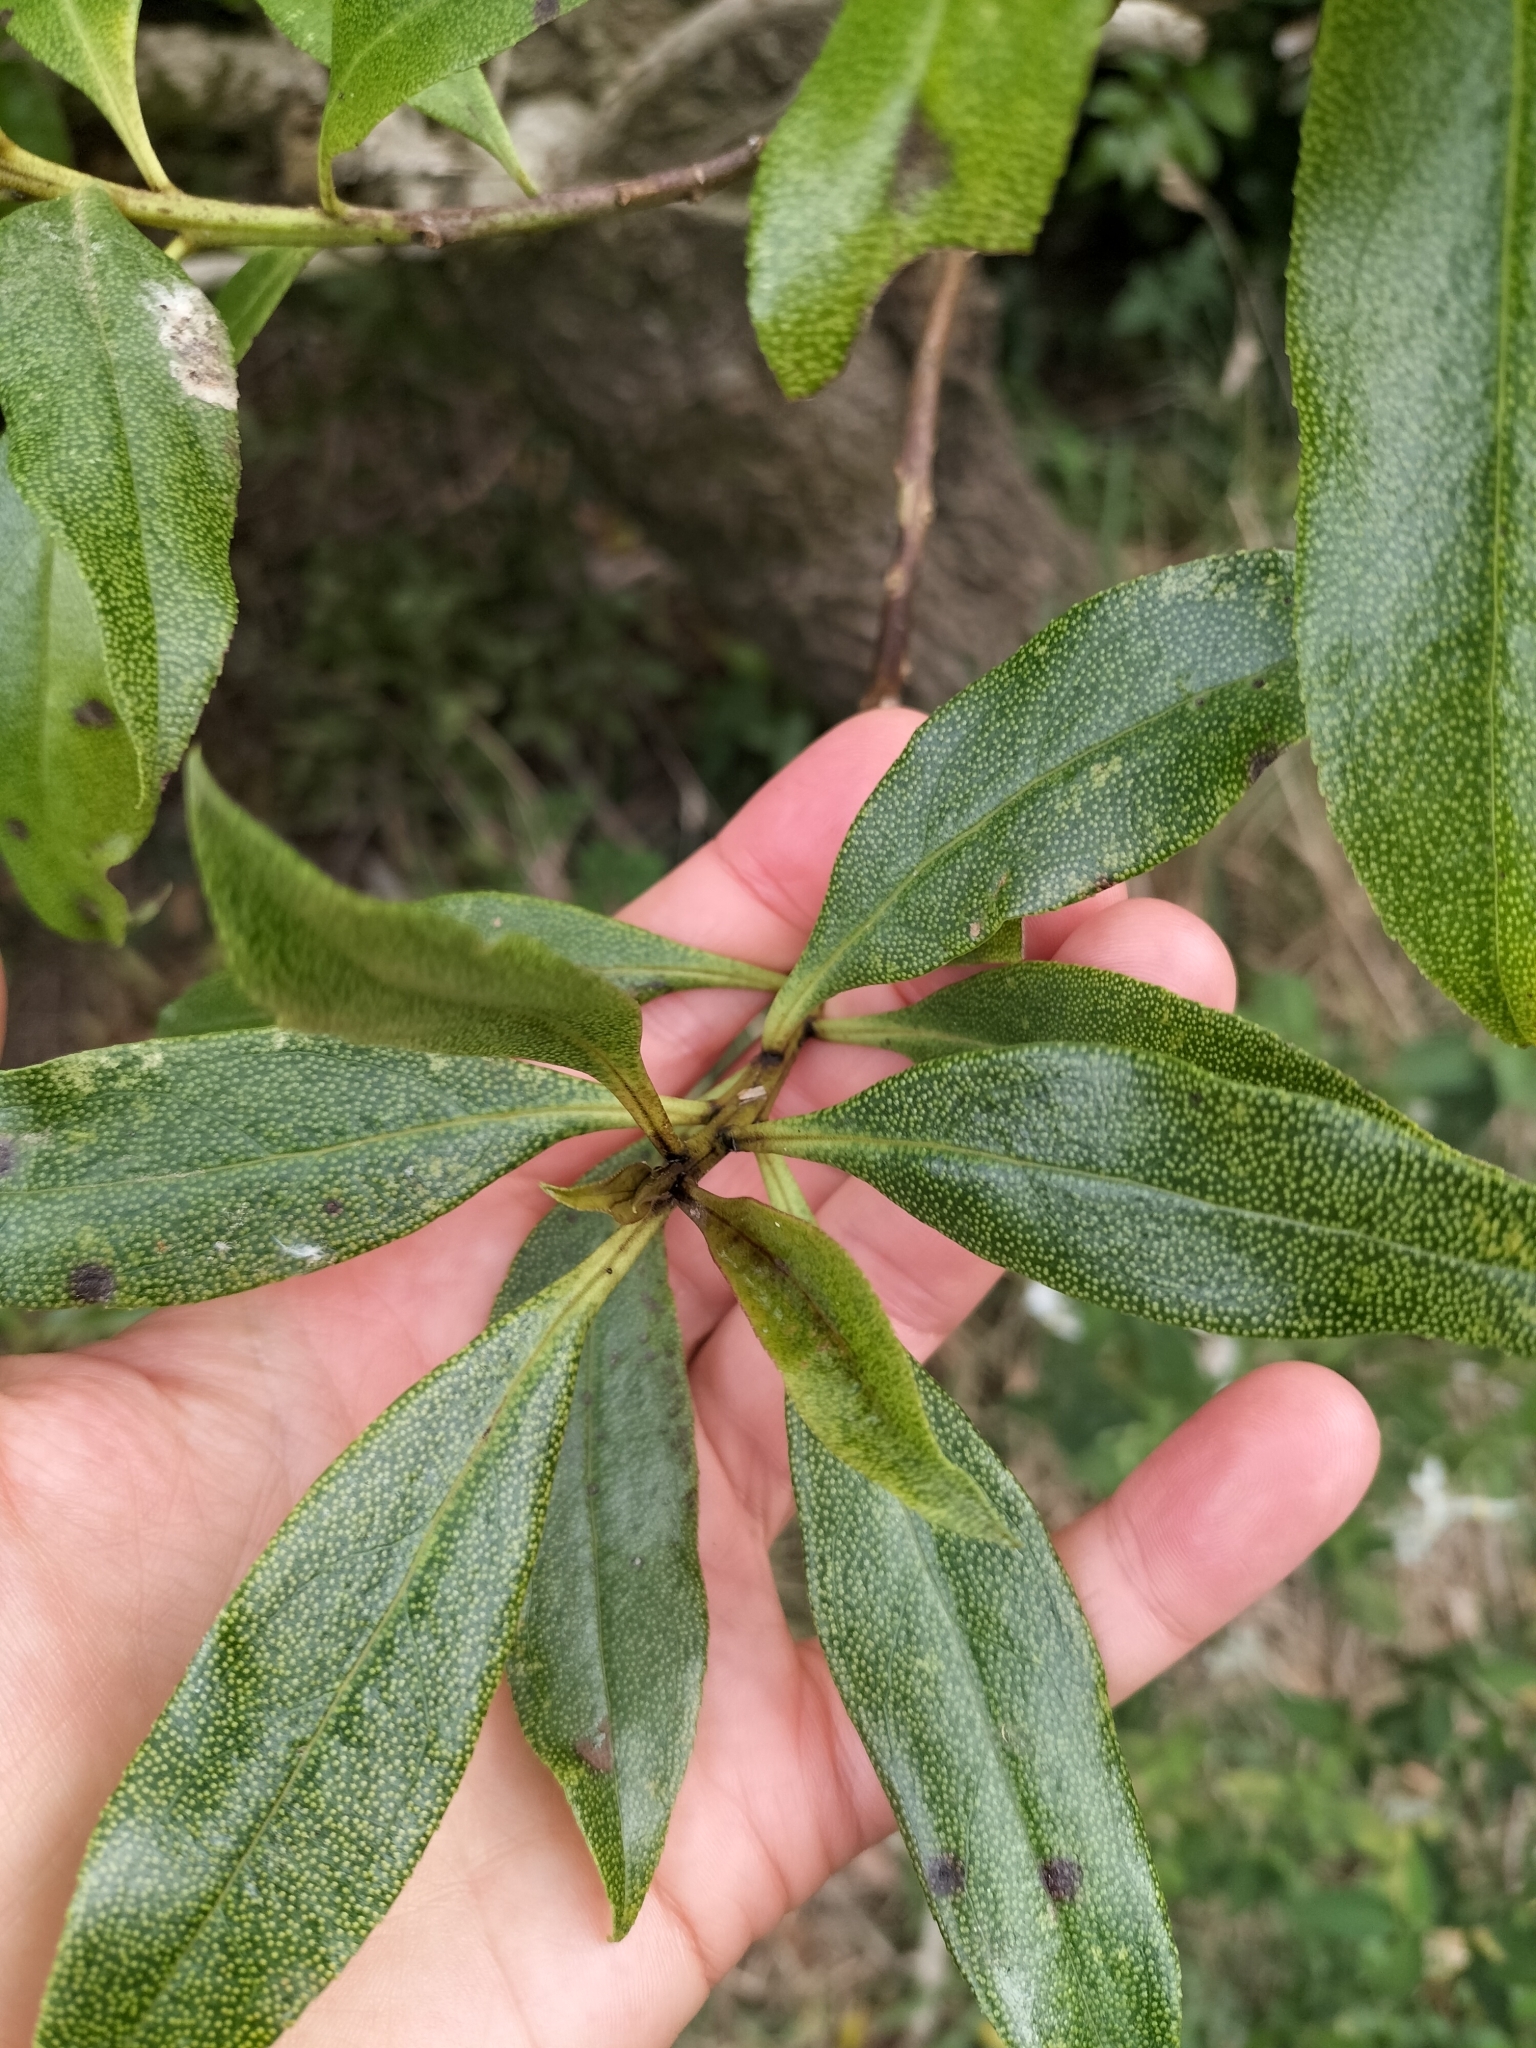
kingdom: Plantae
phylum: Tracheophyta
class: Magnoliopsida
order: Lamiales
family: Scrophulariaceae
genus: Myoporum
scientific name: Myoporum laetum
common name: Ngaio tree
